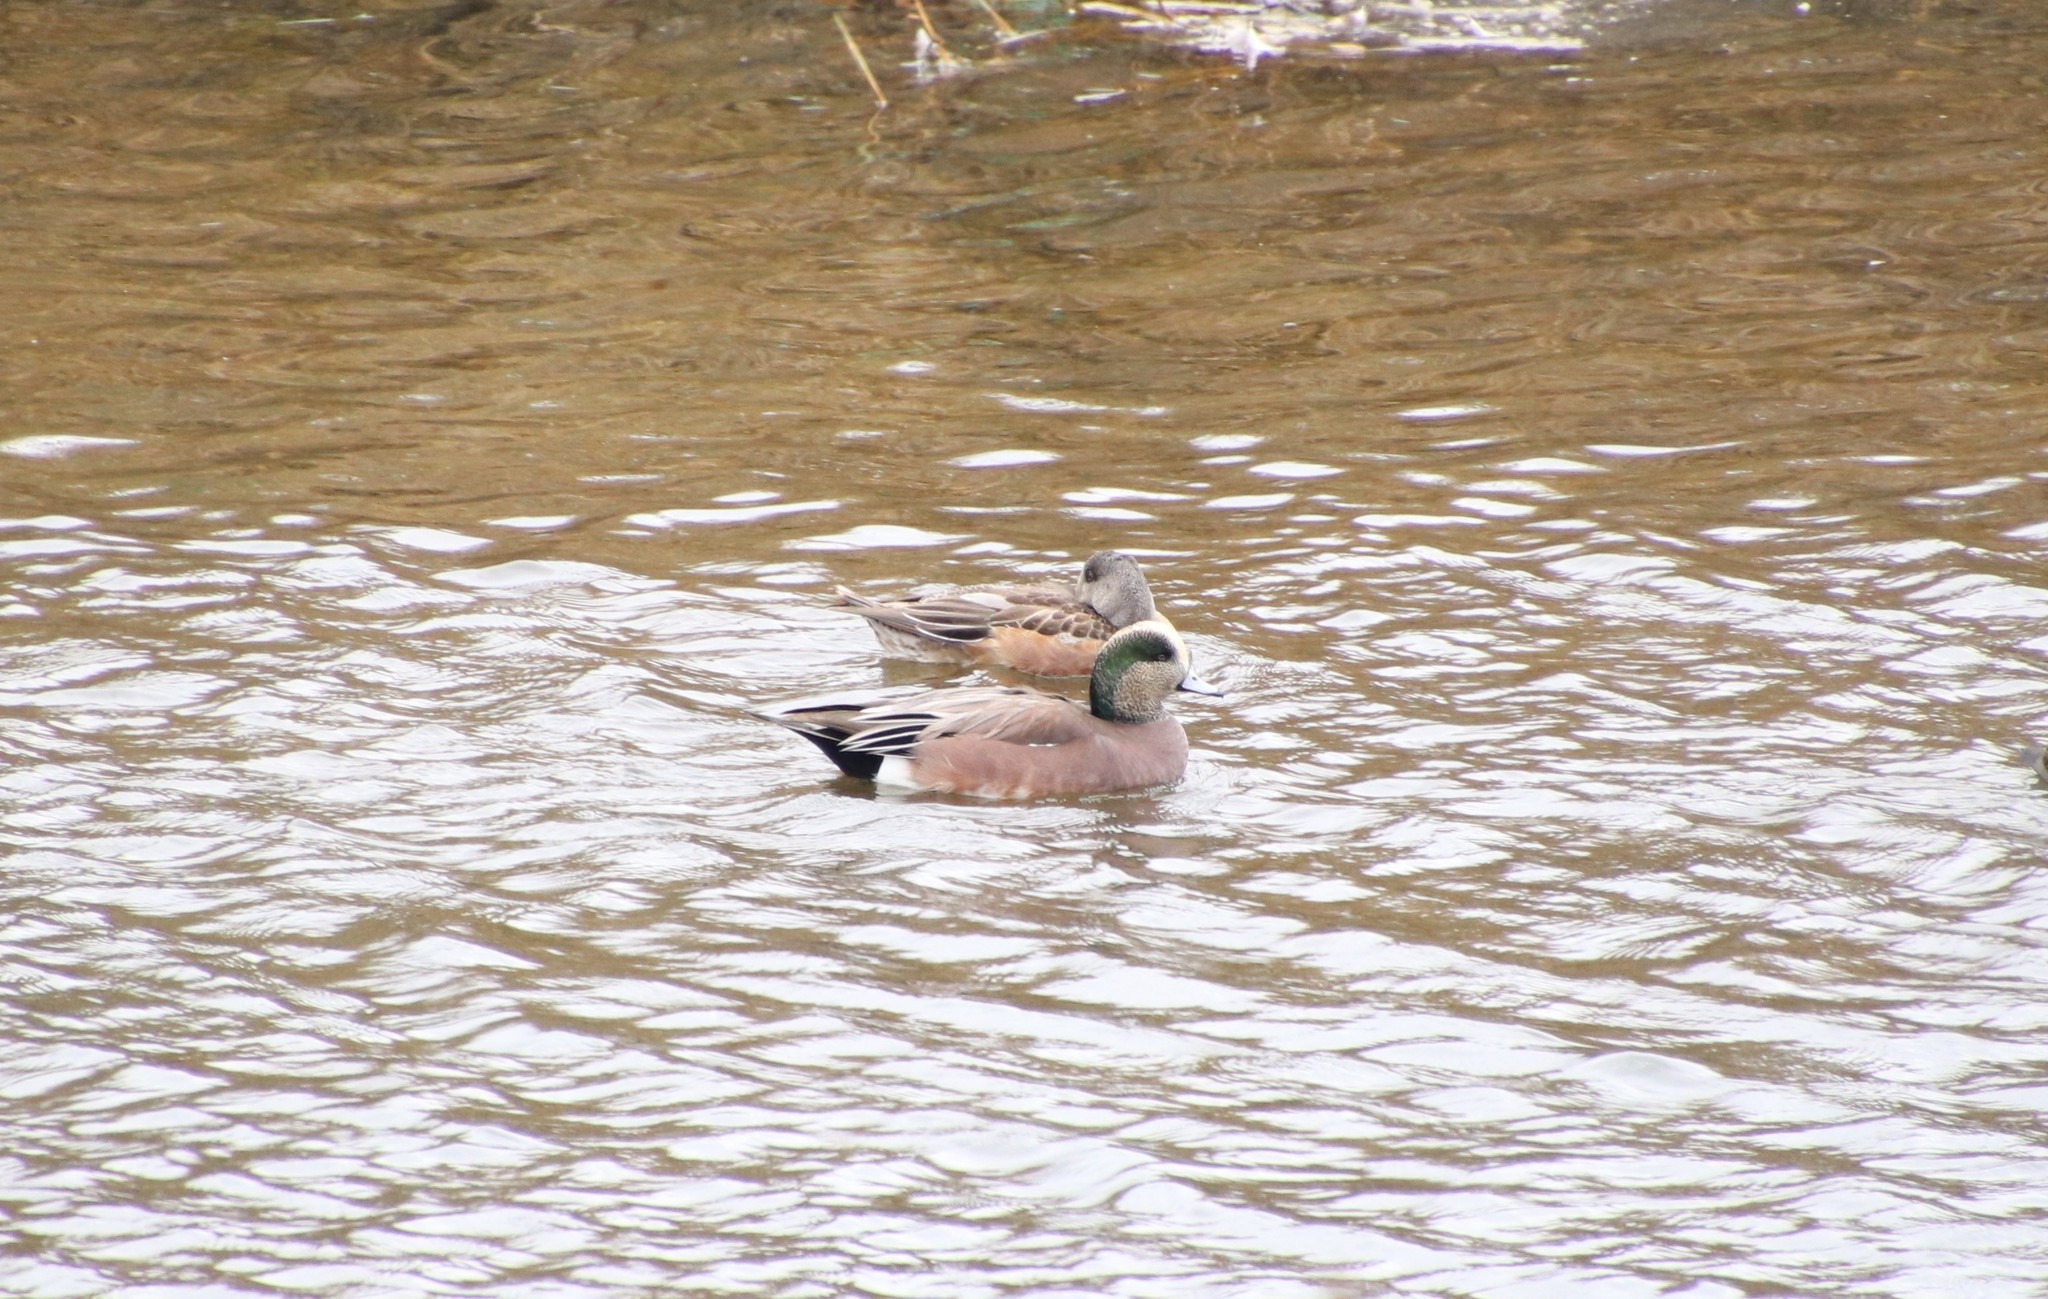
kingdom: Animalia
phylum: Chordata
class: Aves
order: Anseriformes
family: Anatidae
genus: Mareca
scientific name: Mareca americana
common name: American wigeon
